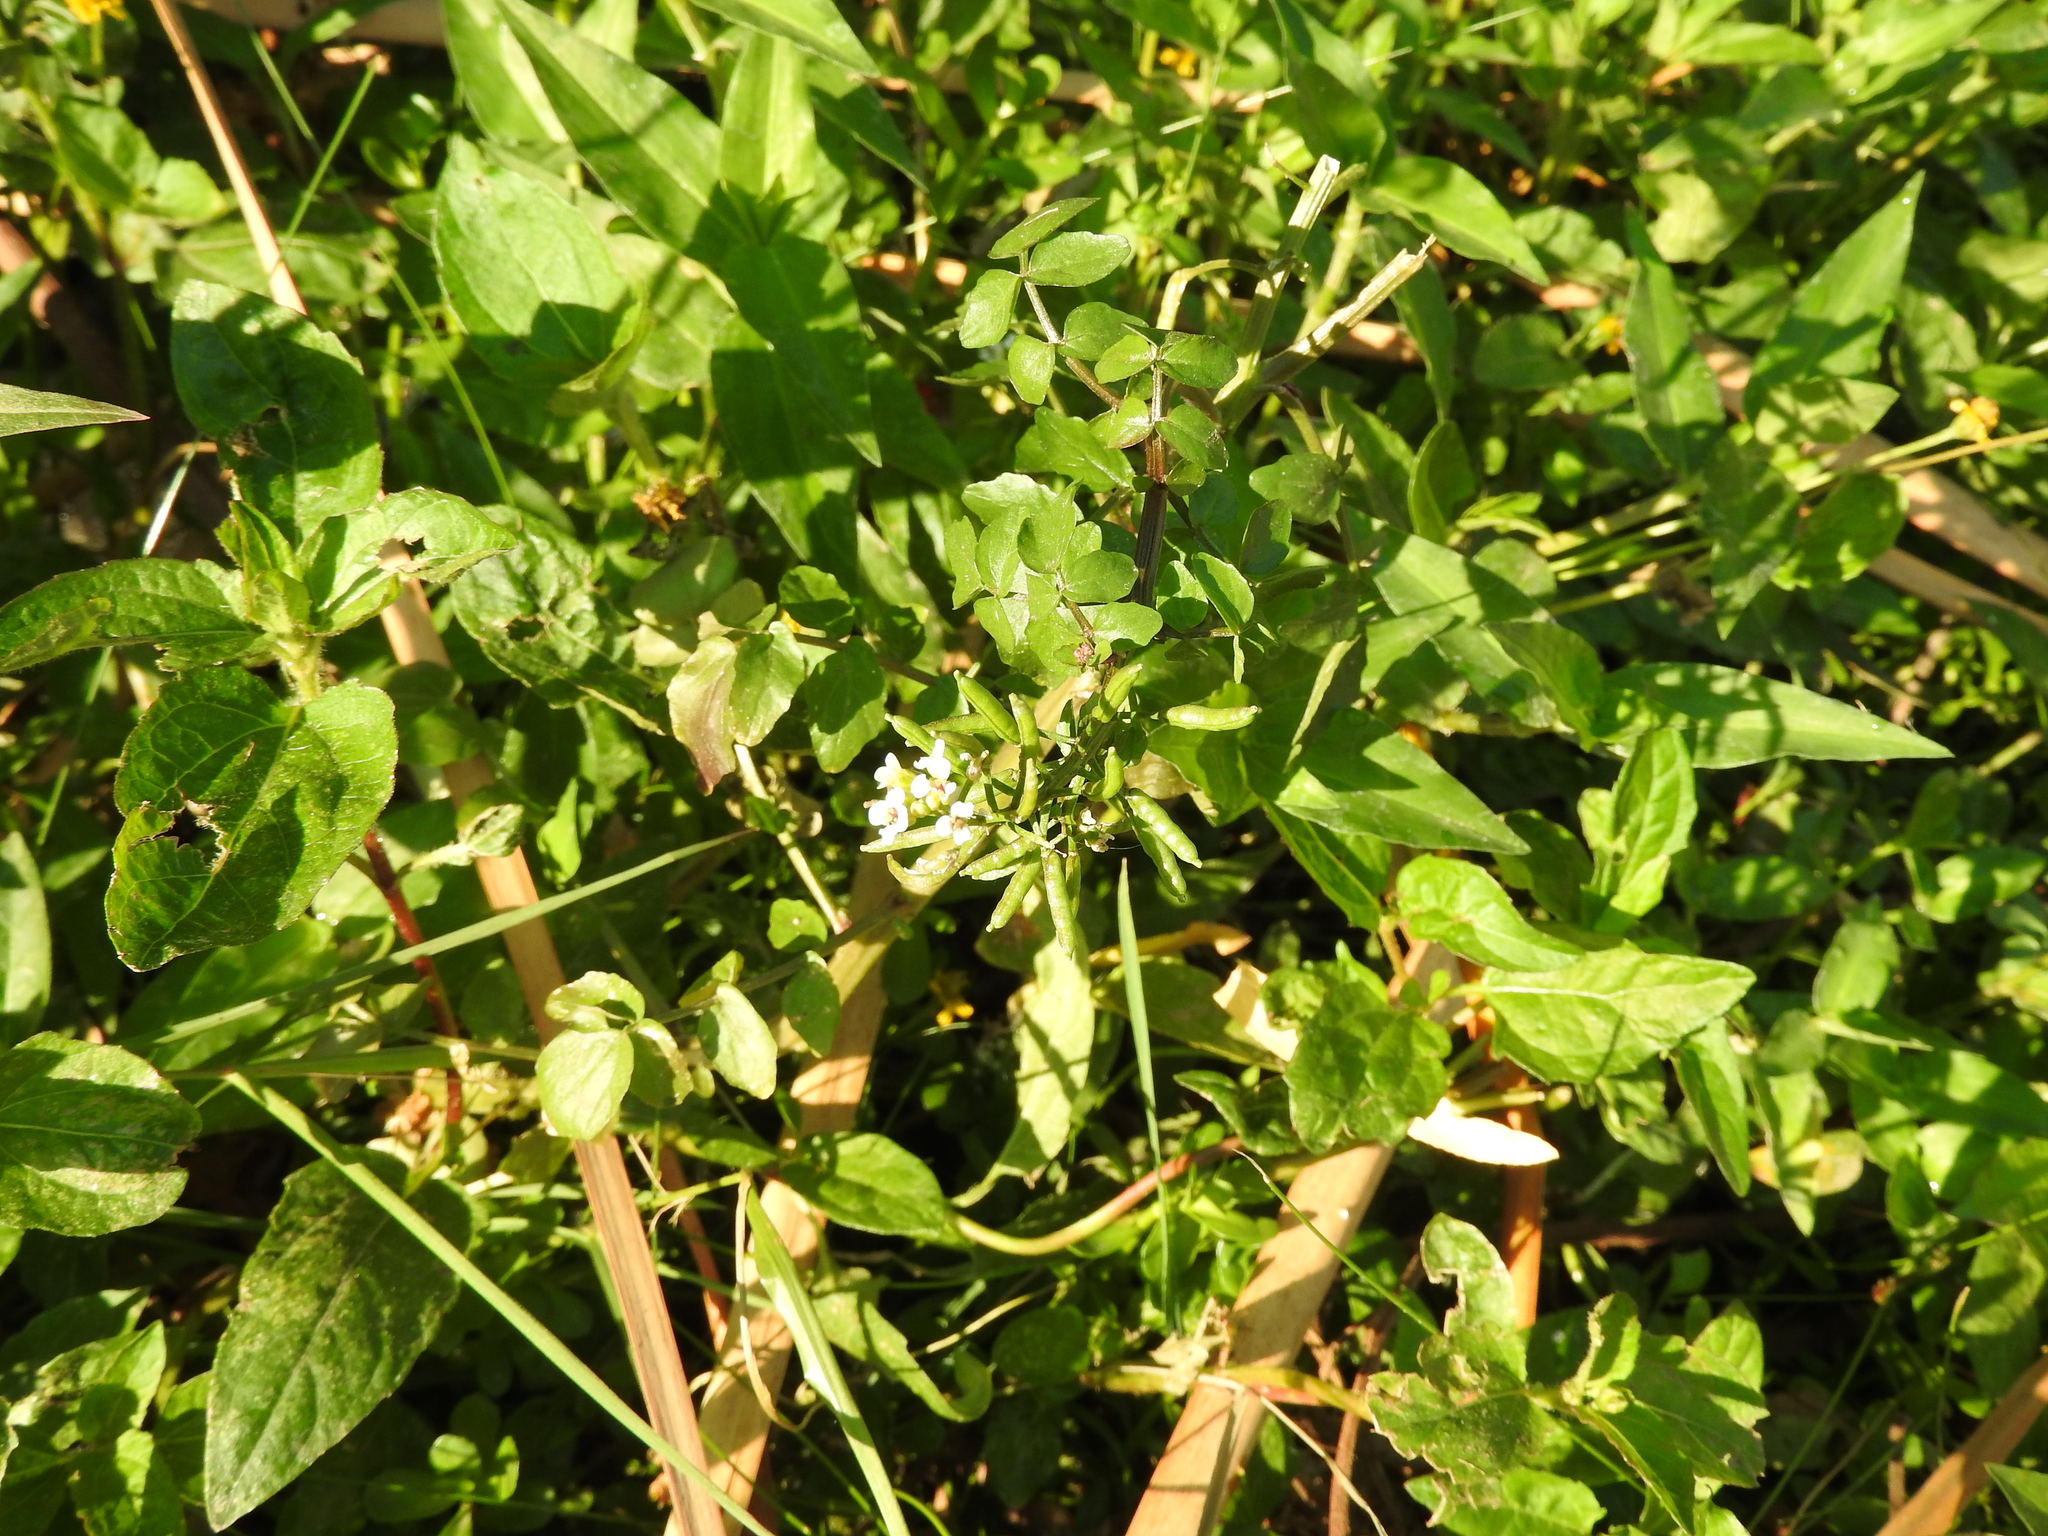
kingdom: Plantae
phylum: Tracheophyta
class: Magnoliopsida
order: Brassicales
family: Brassicaceae
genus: Nasturtium
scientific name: Nasturtium officinale
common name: Watercress
